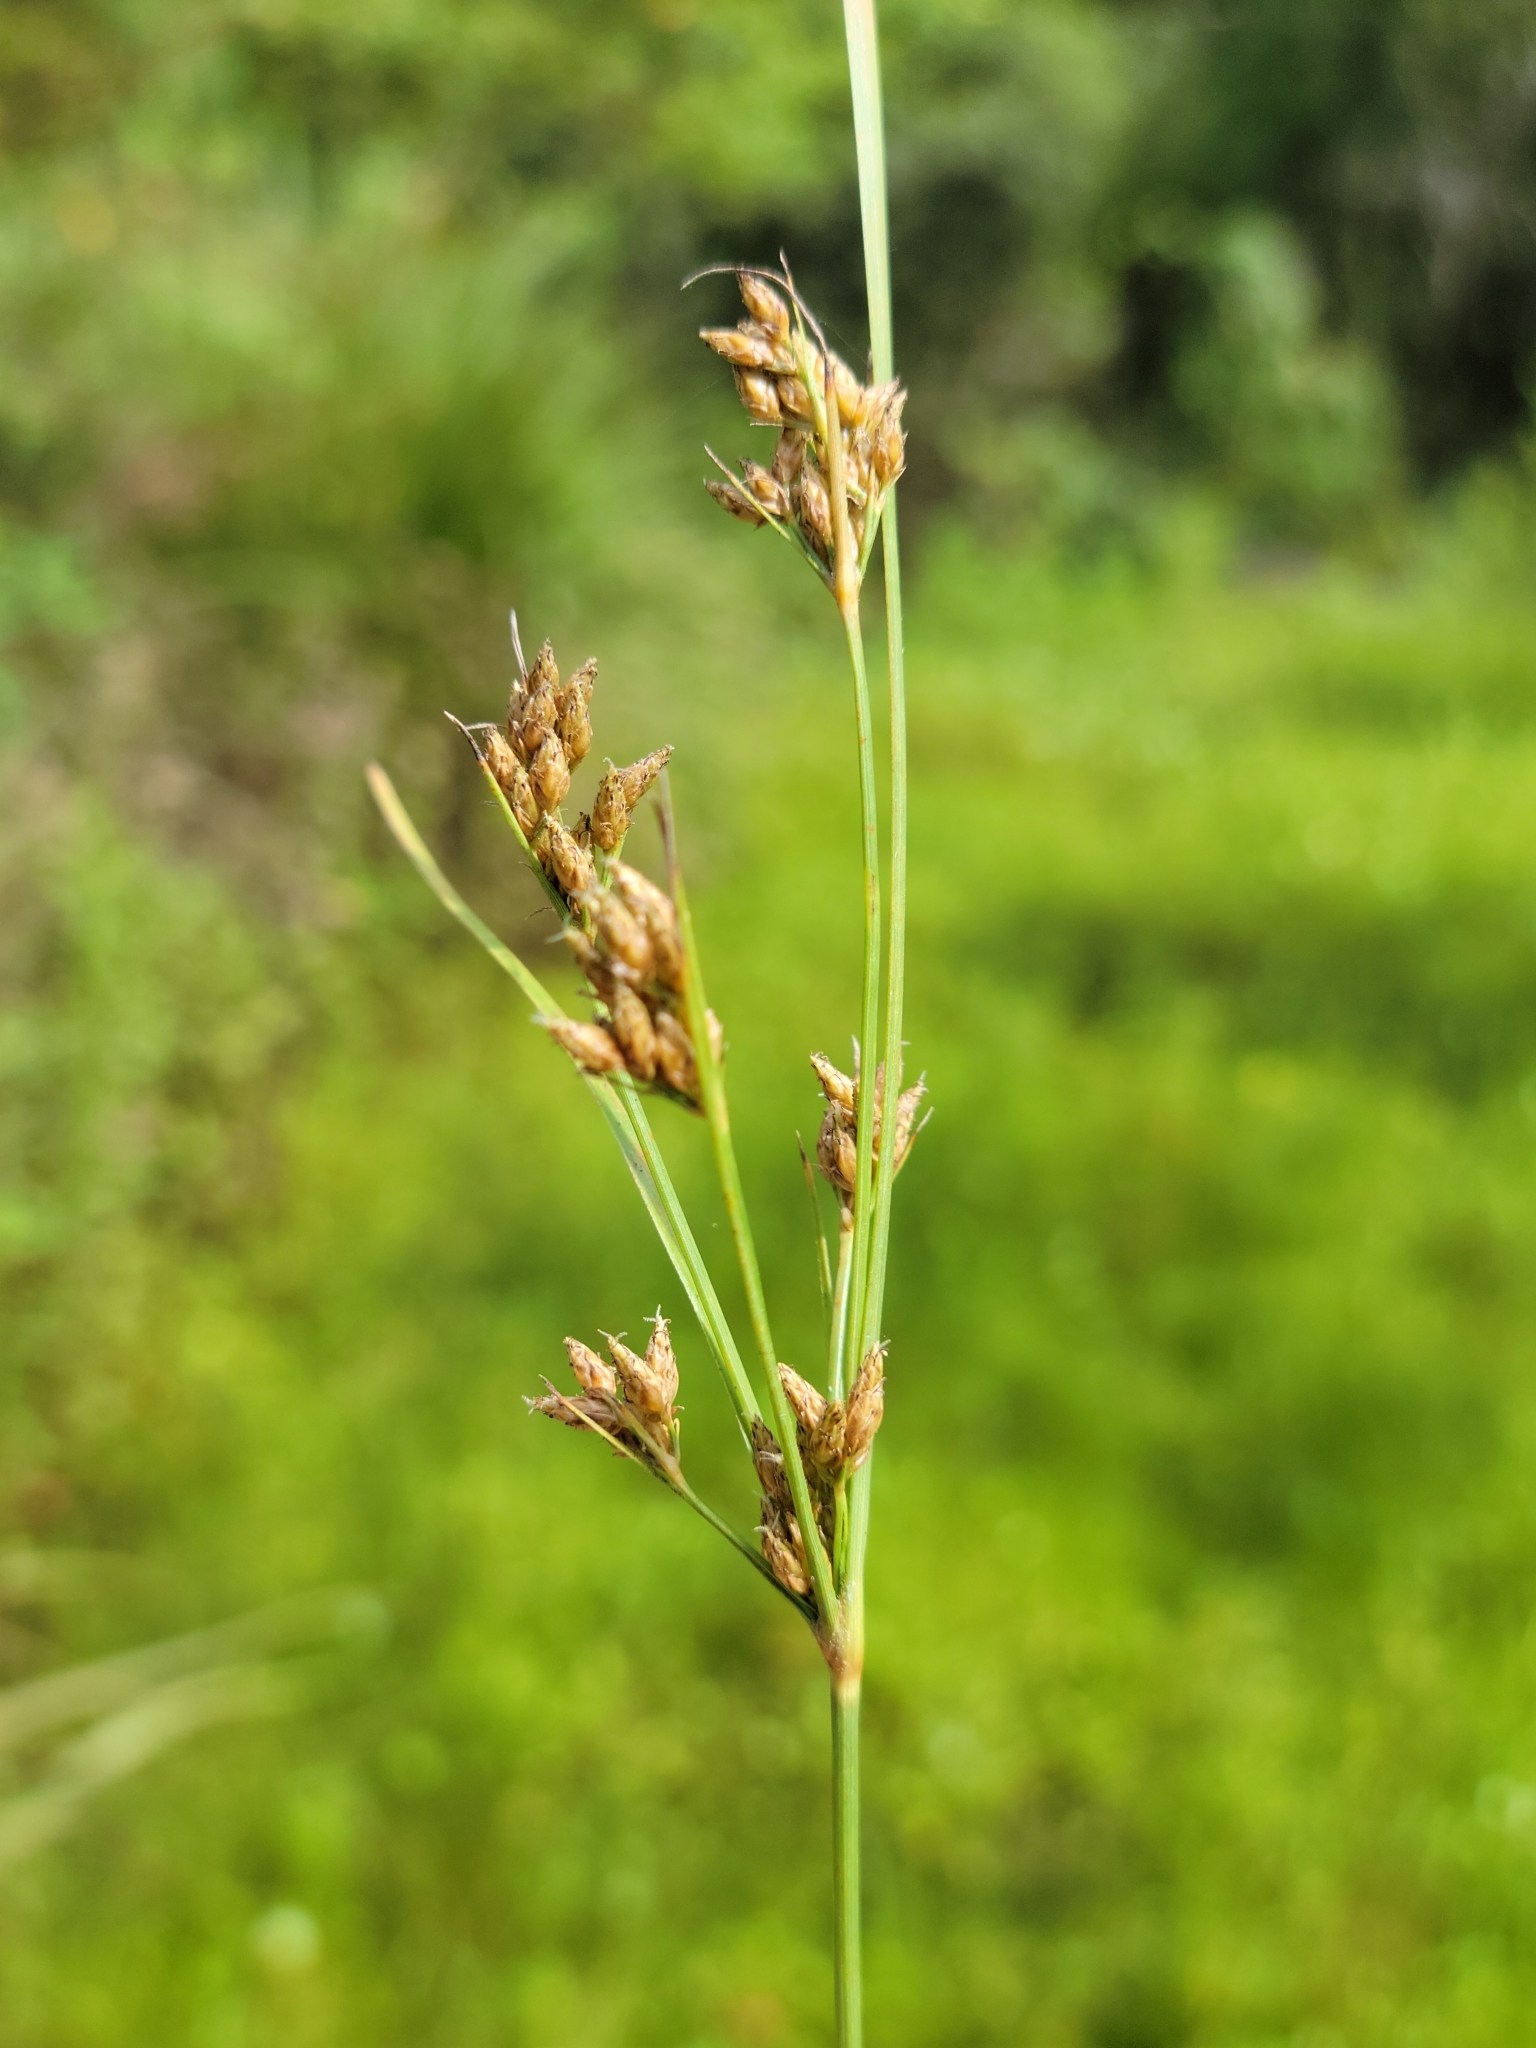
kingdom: Plantae
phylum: Tracheophyta
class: Liliopsida
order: Poales
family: Cyperaceae
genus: Fimbristylis
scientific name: Fimbristylis dichotoma
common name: Forked fimbry
